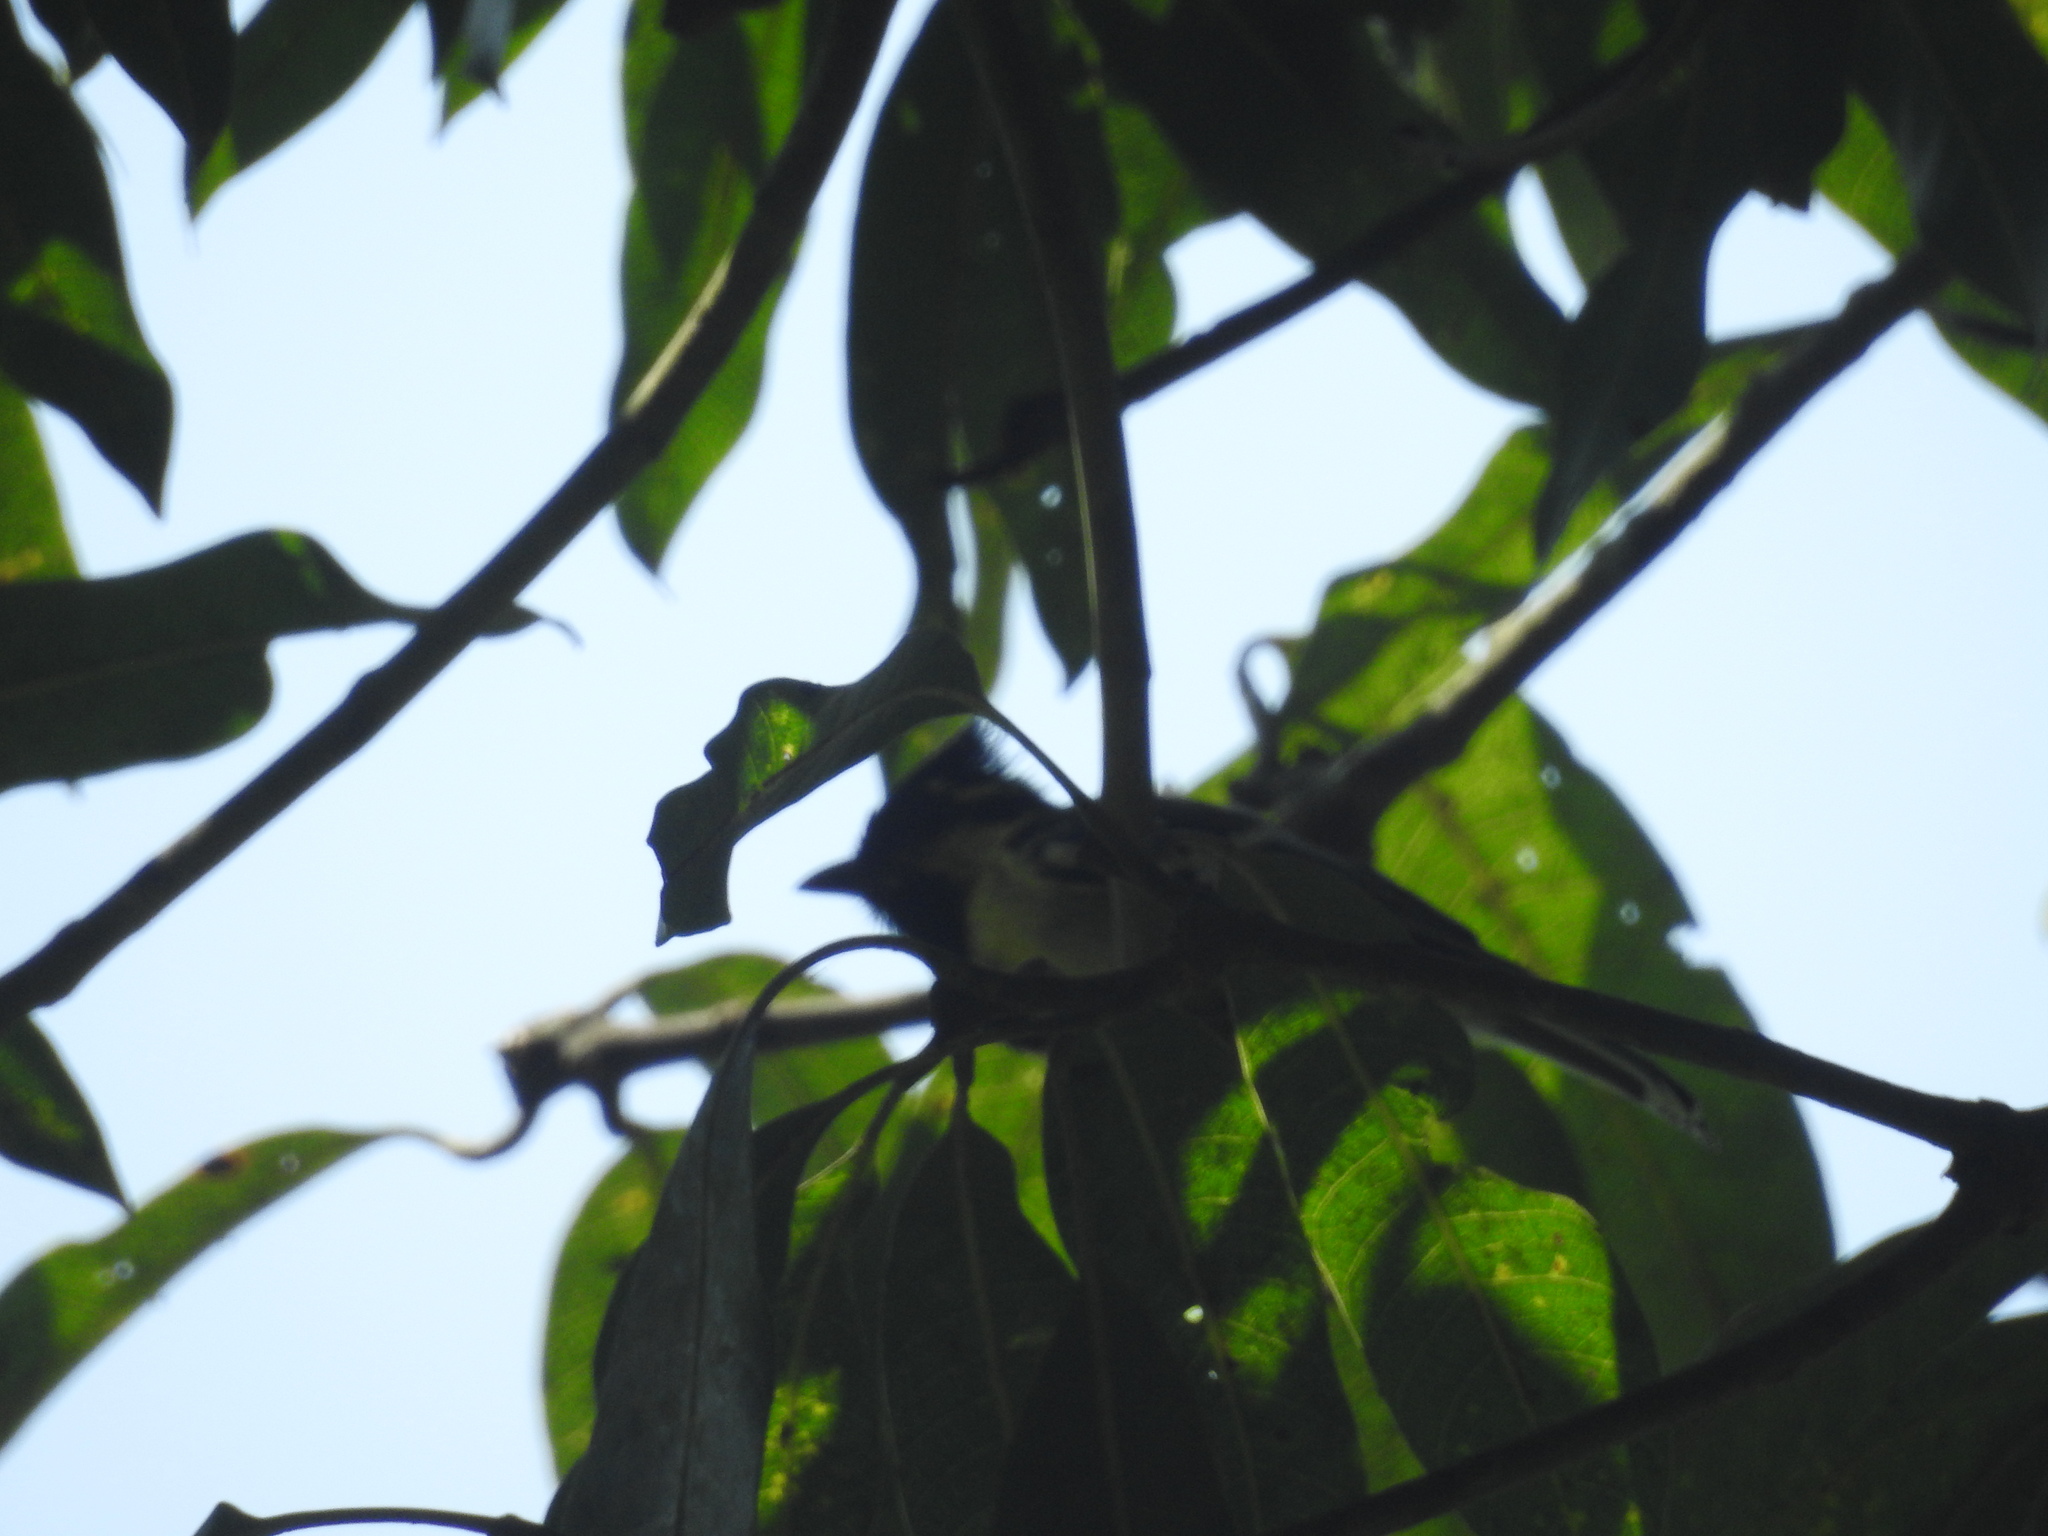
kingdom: Animalia
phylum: Chordata
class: Aves
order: Passeriformes
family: Paridae
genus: Parus
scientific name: Parus aplonotus
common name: Indian black-lored tit
